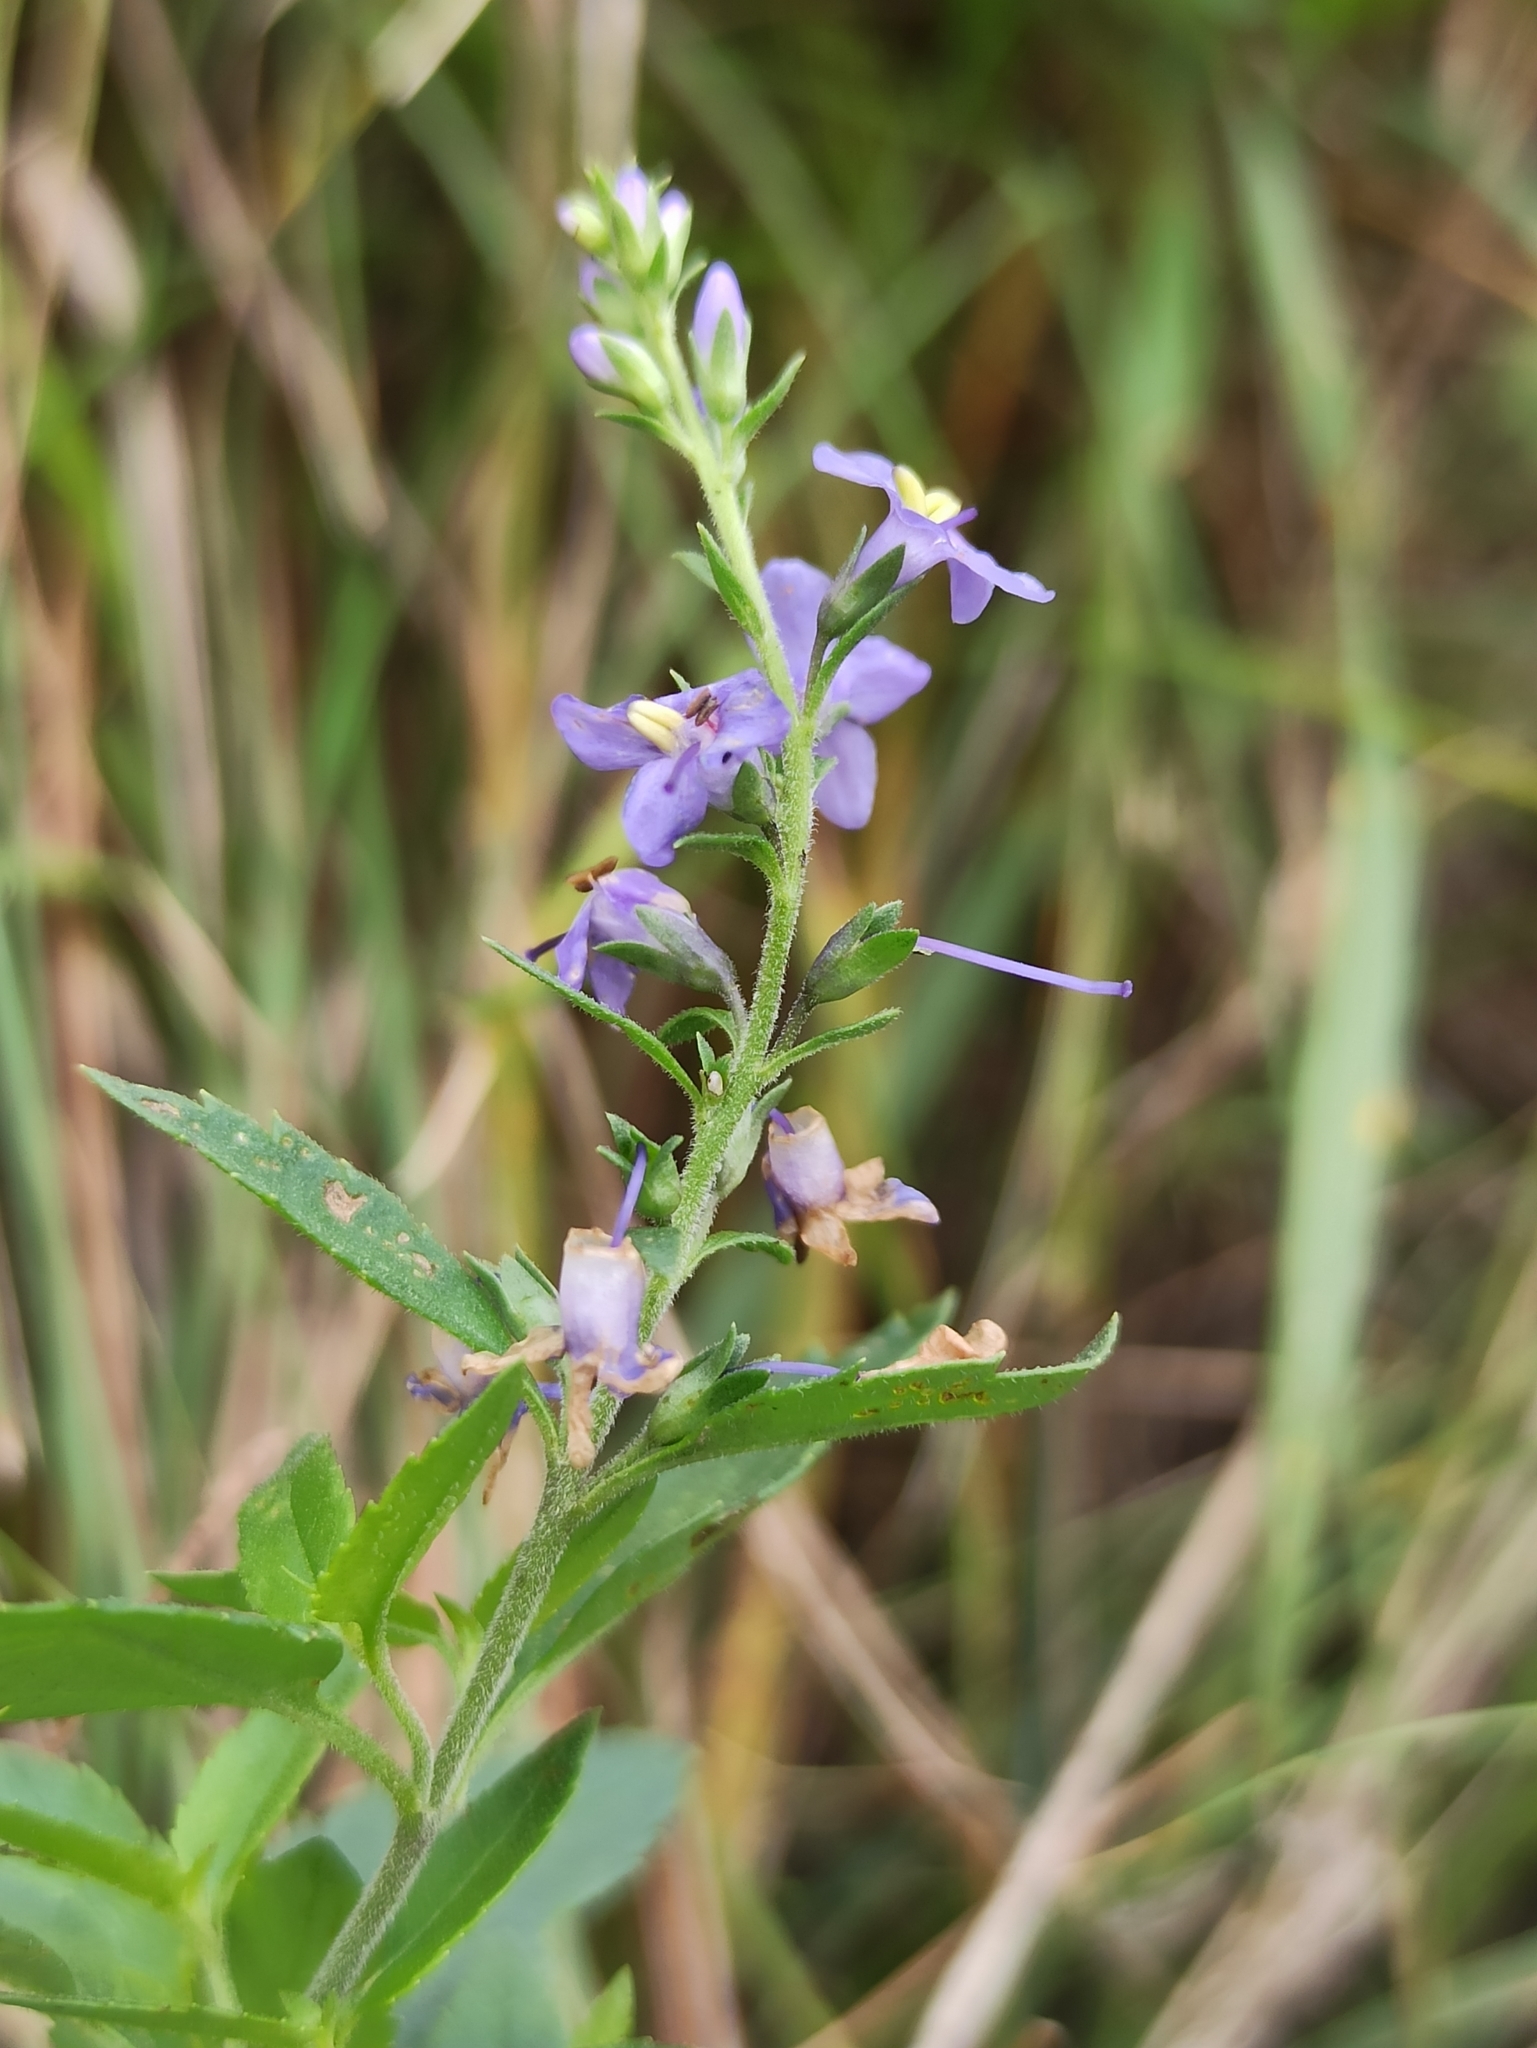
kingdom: Plantae
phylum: Tracheophyta
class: Magnoliopsida
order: Lamiales
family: Plantaginaceae
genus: Veronica
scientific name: Veronica longifolia
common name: Garden speedwell
